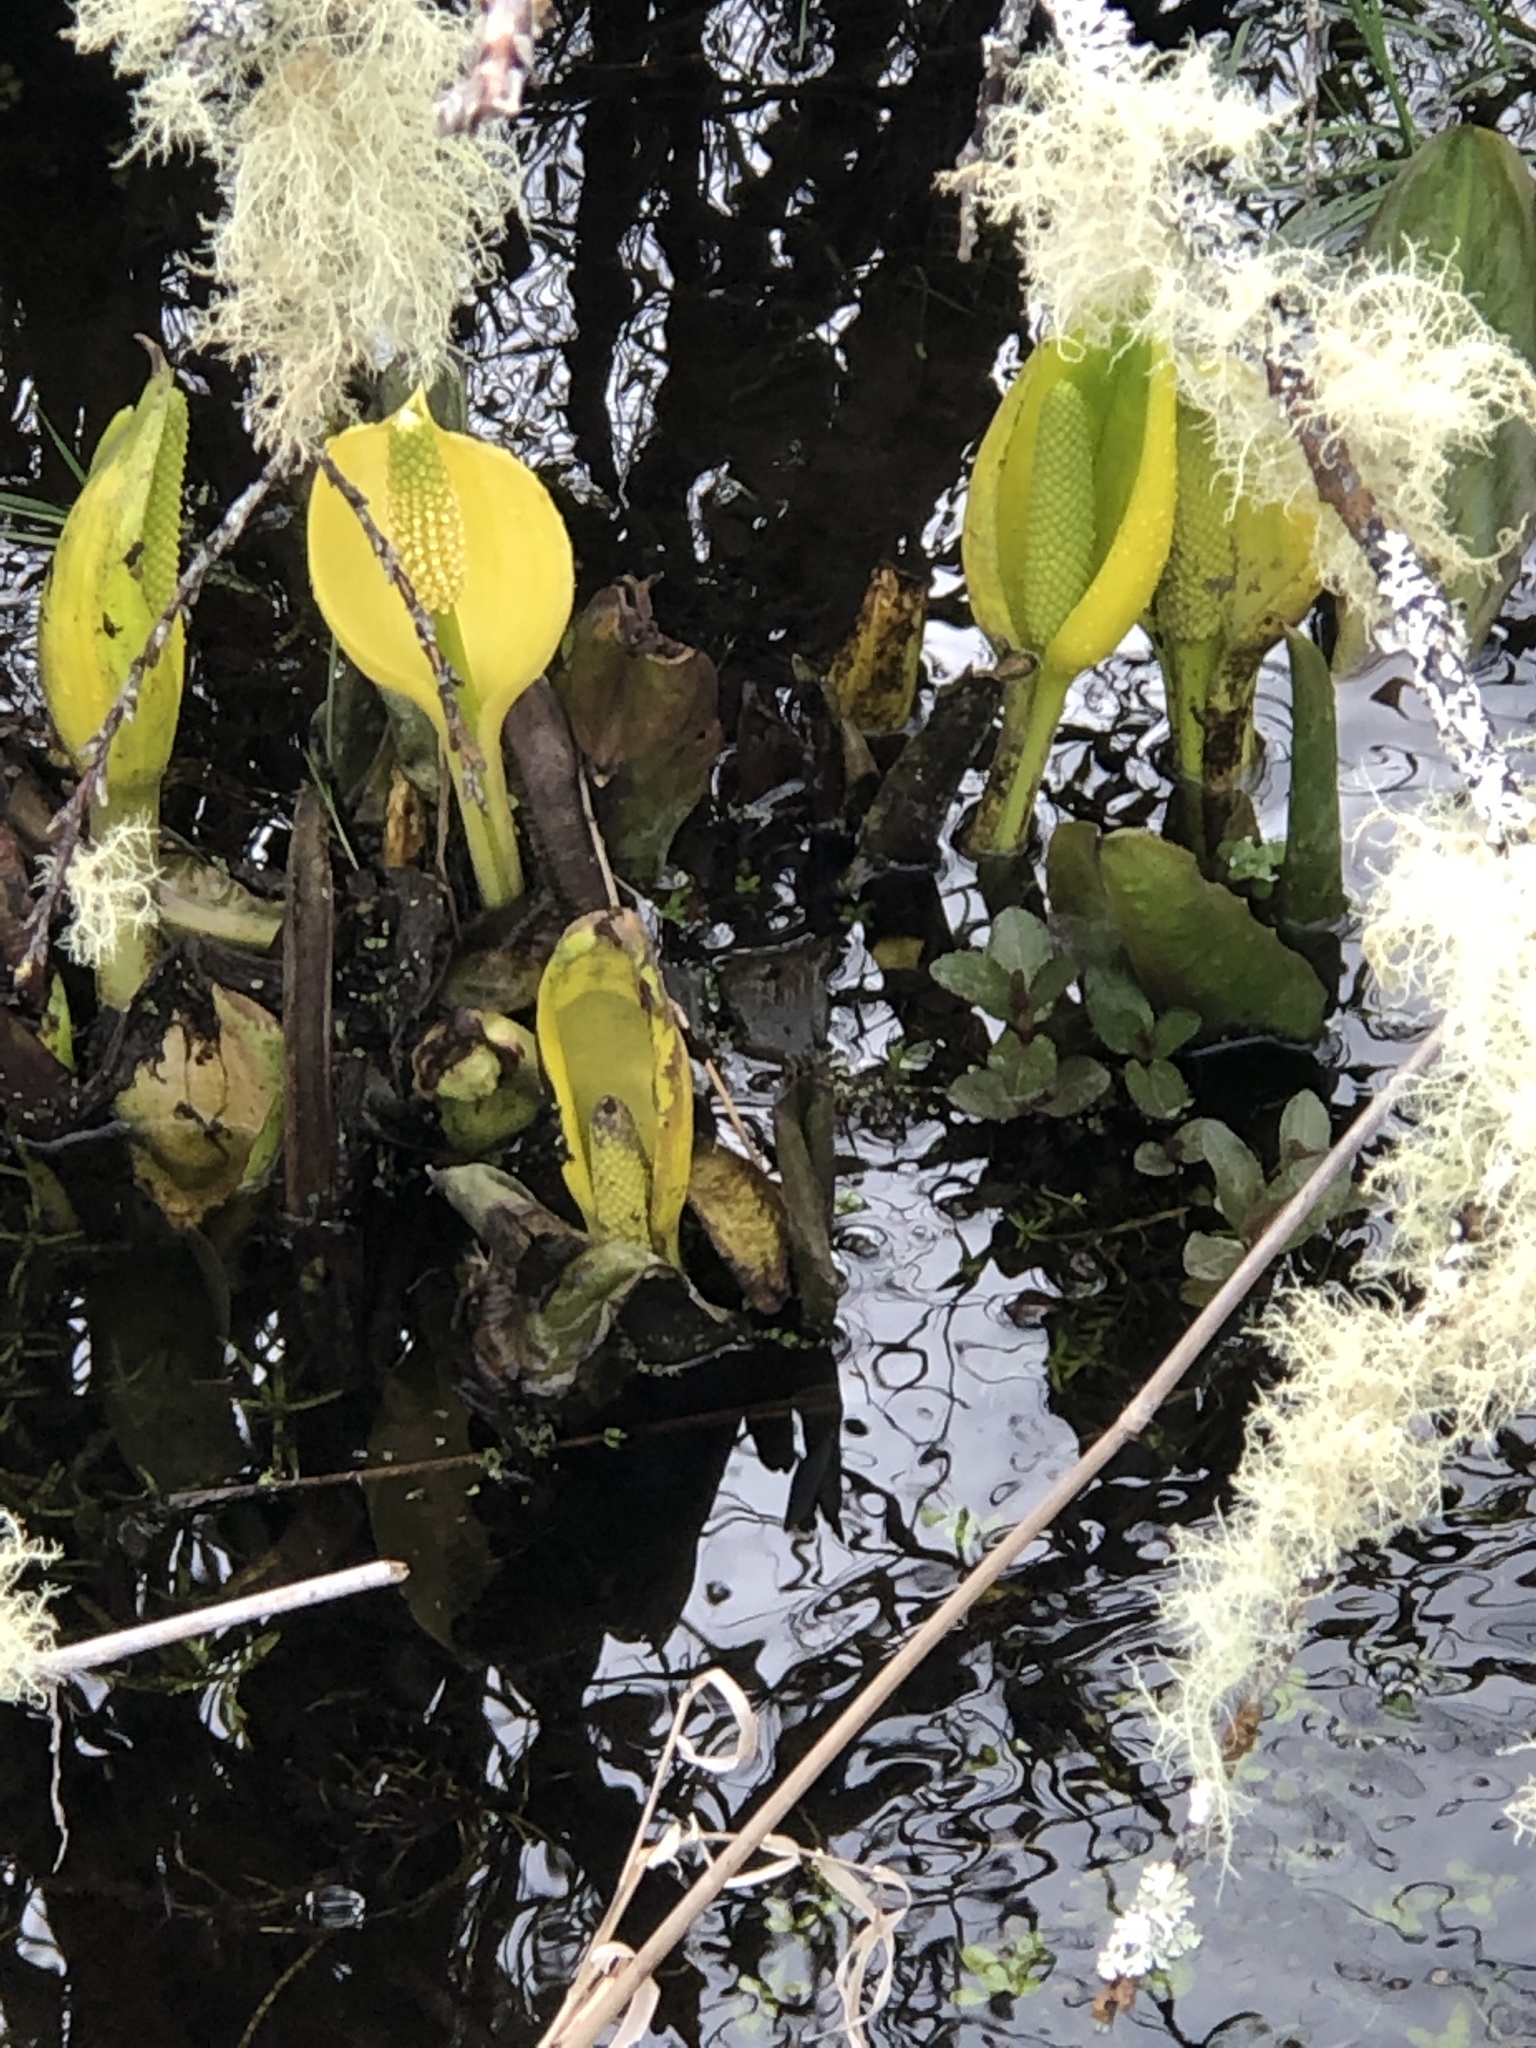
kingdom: Plantae
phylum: Tracheophyta
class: Liliopsida
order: Alismatales
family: Araceae
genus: Lysichiton
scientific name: Lysichiton americanus
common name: American skunk cabbage
